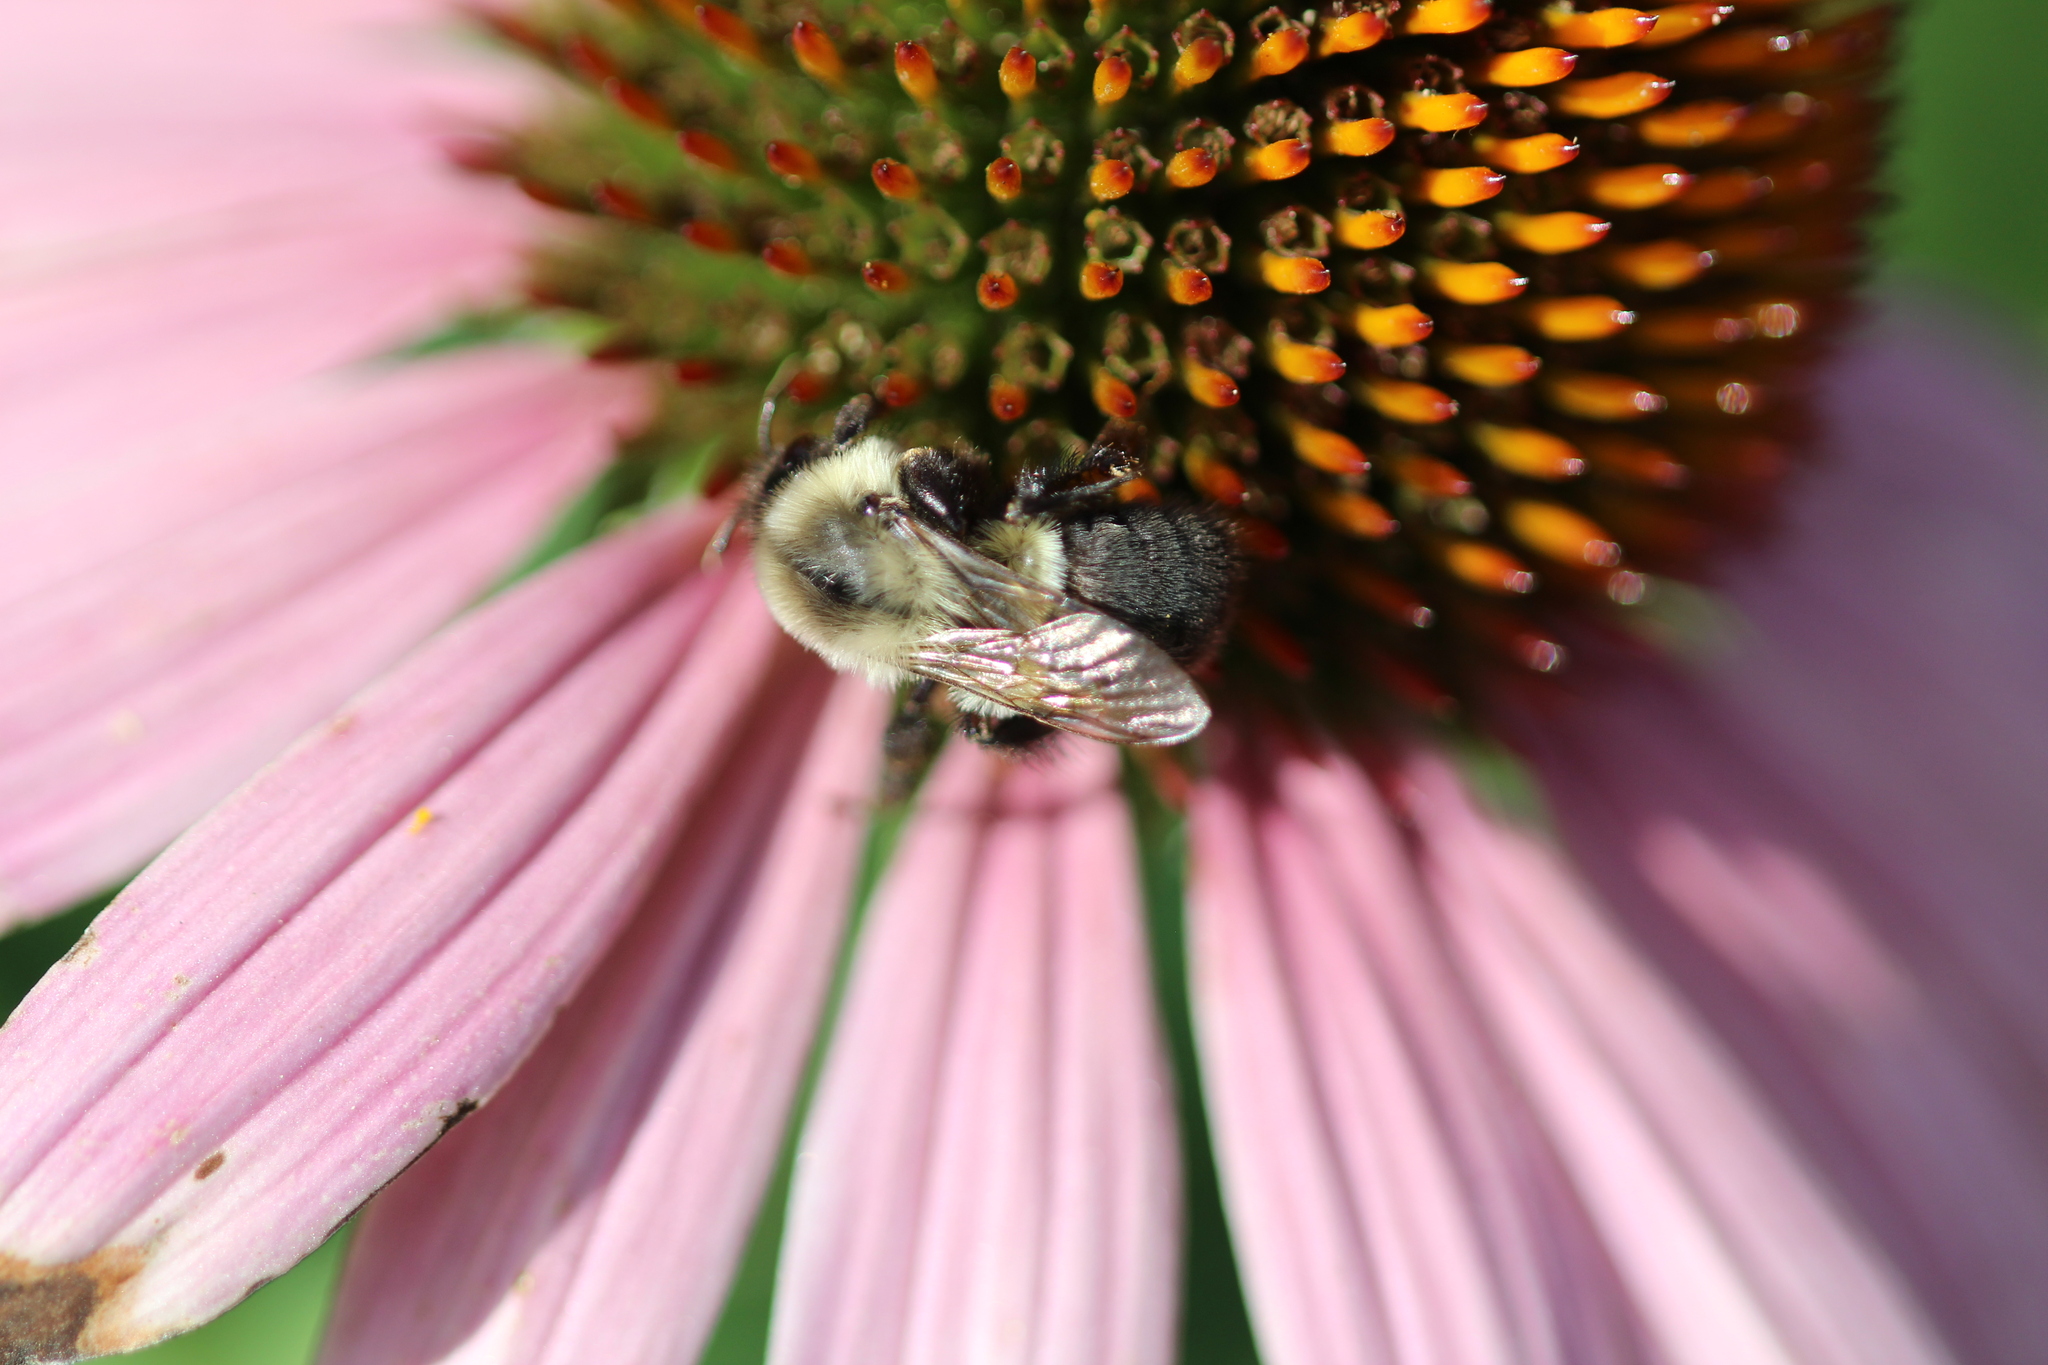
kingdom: Animalia
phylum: Arthropoda
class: Insecta
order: Hymenoptera
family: Apidae
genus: Bombus
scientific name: Bombus impatiens
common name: Common eastern bumble bee
